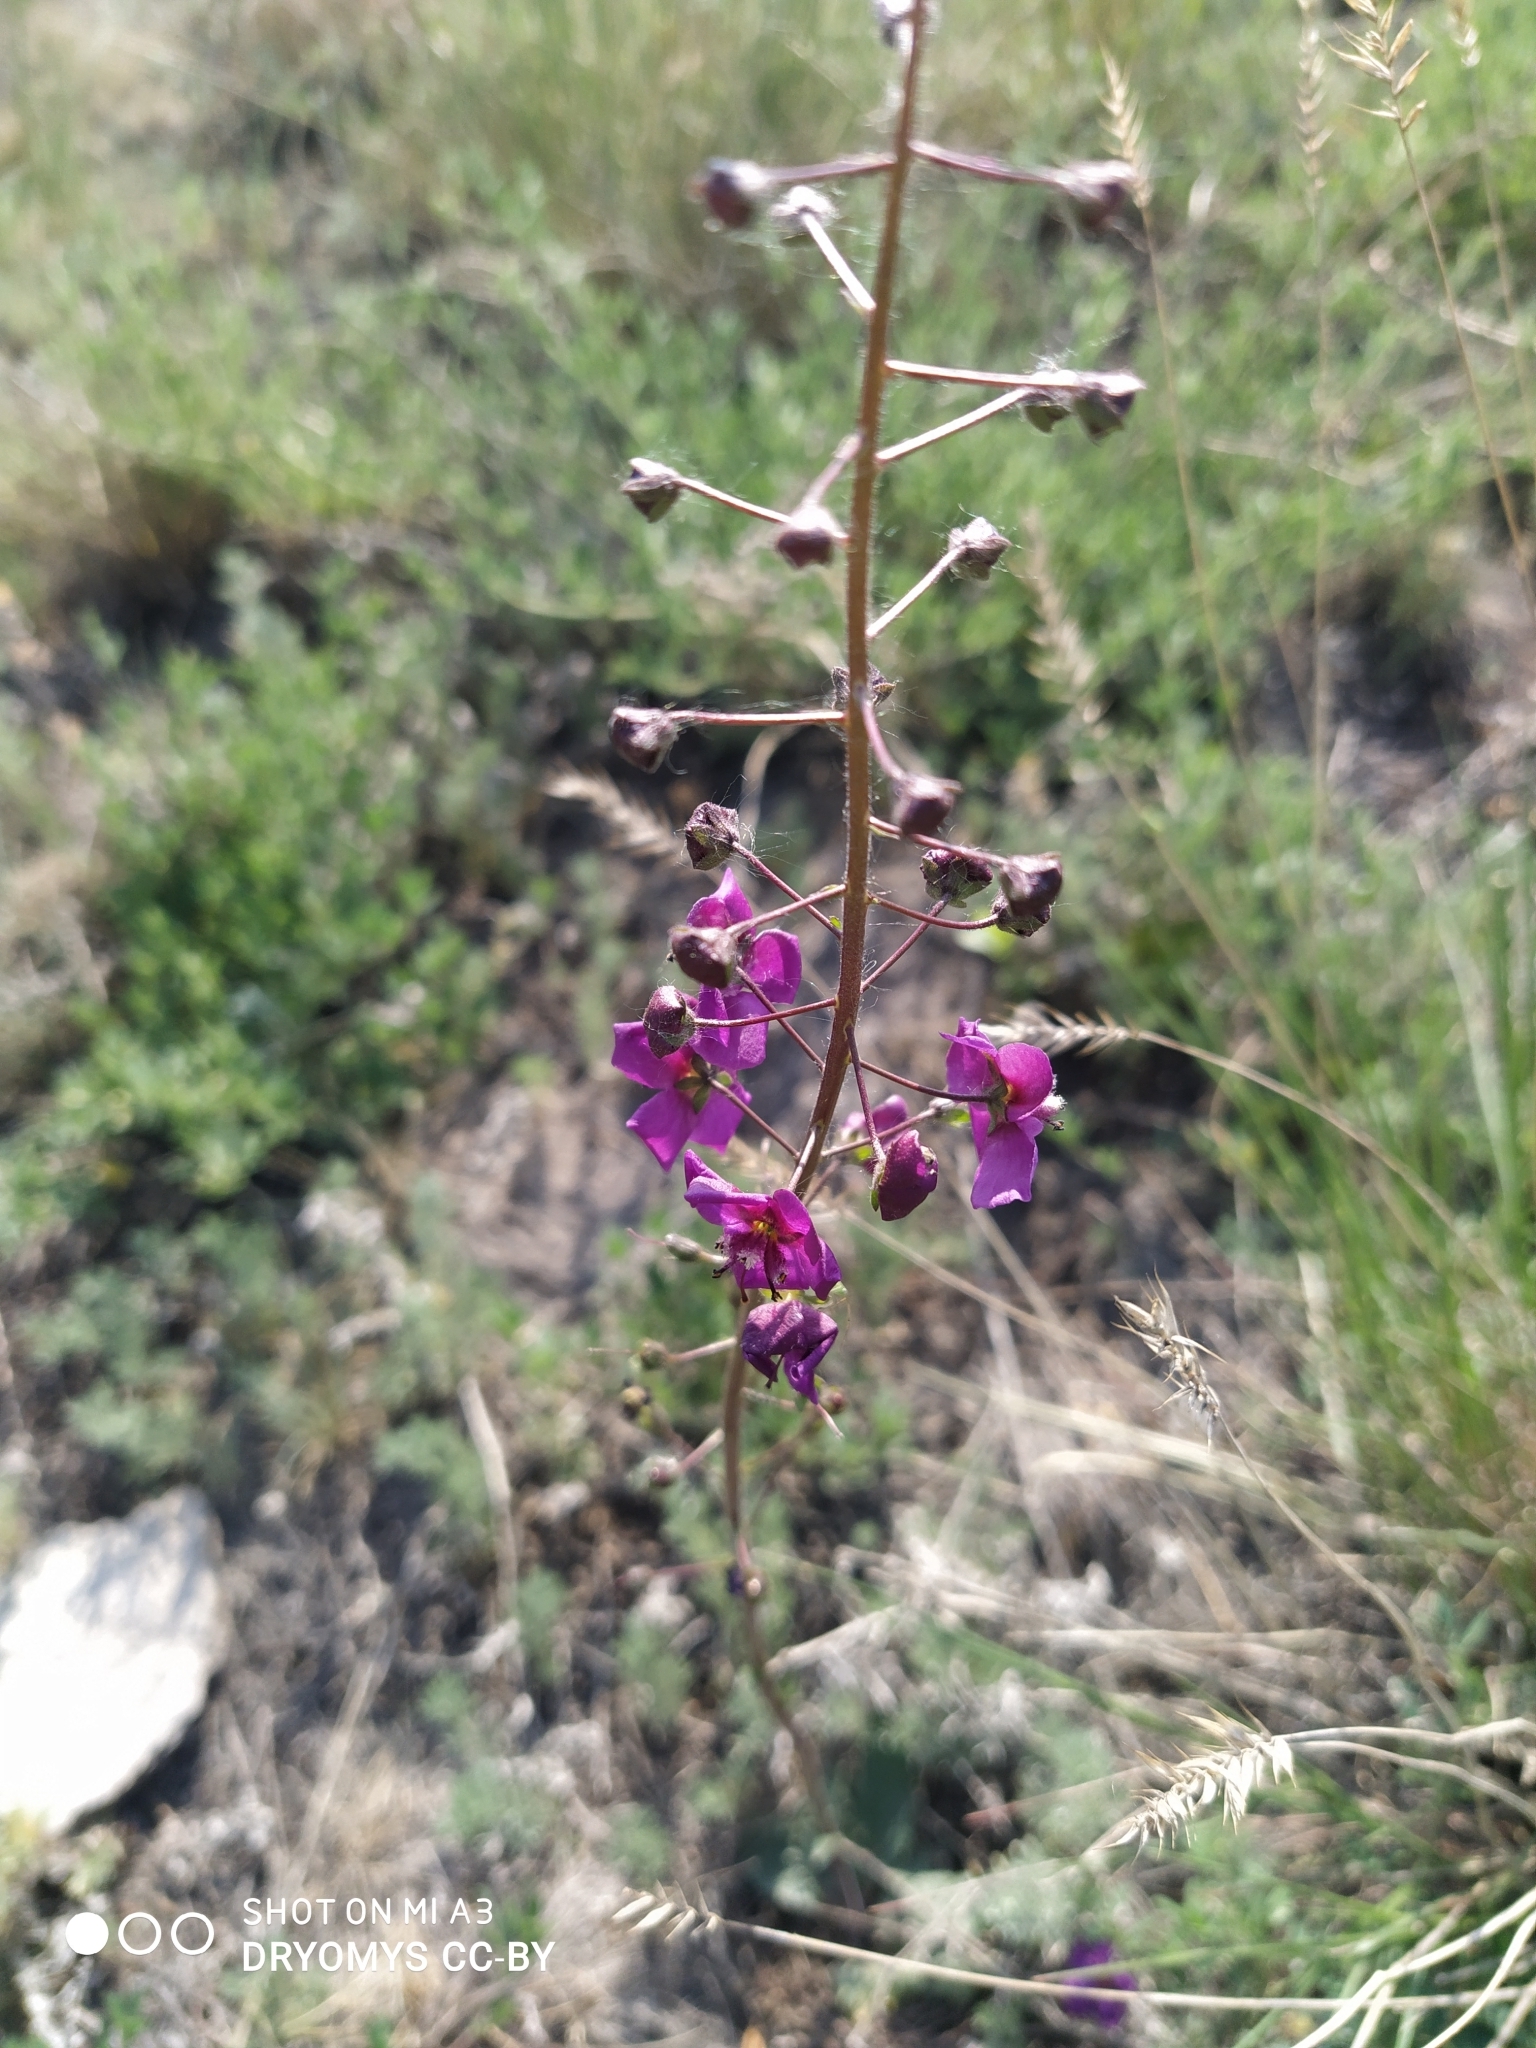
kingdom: Plantae
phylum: Tracheophyta
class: Magnoliopsida
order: Lamiales
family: Scrophulariaceae
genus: Verbascum
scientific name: Verbascum phoeniceum
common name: Purple mullein
